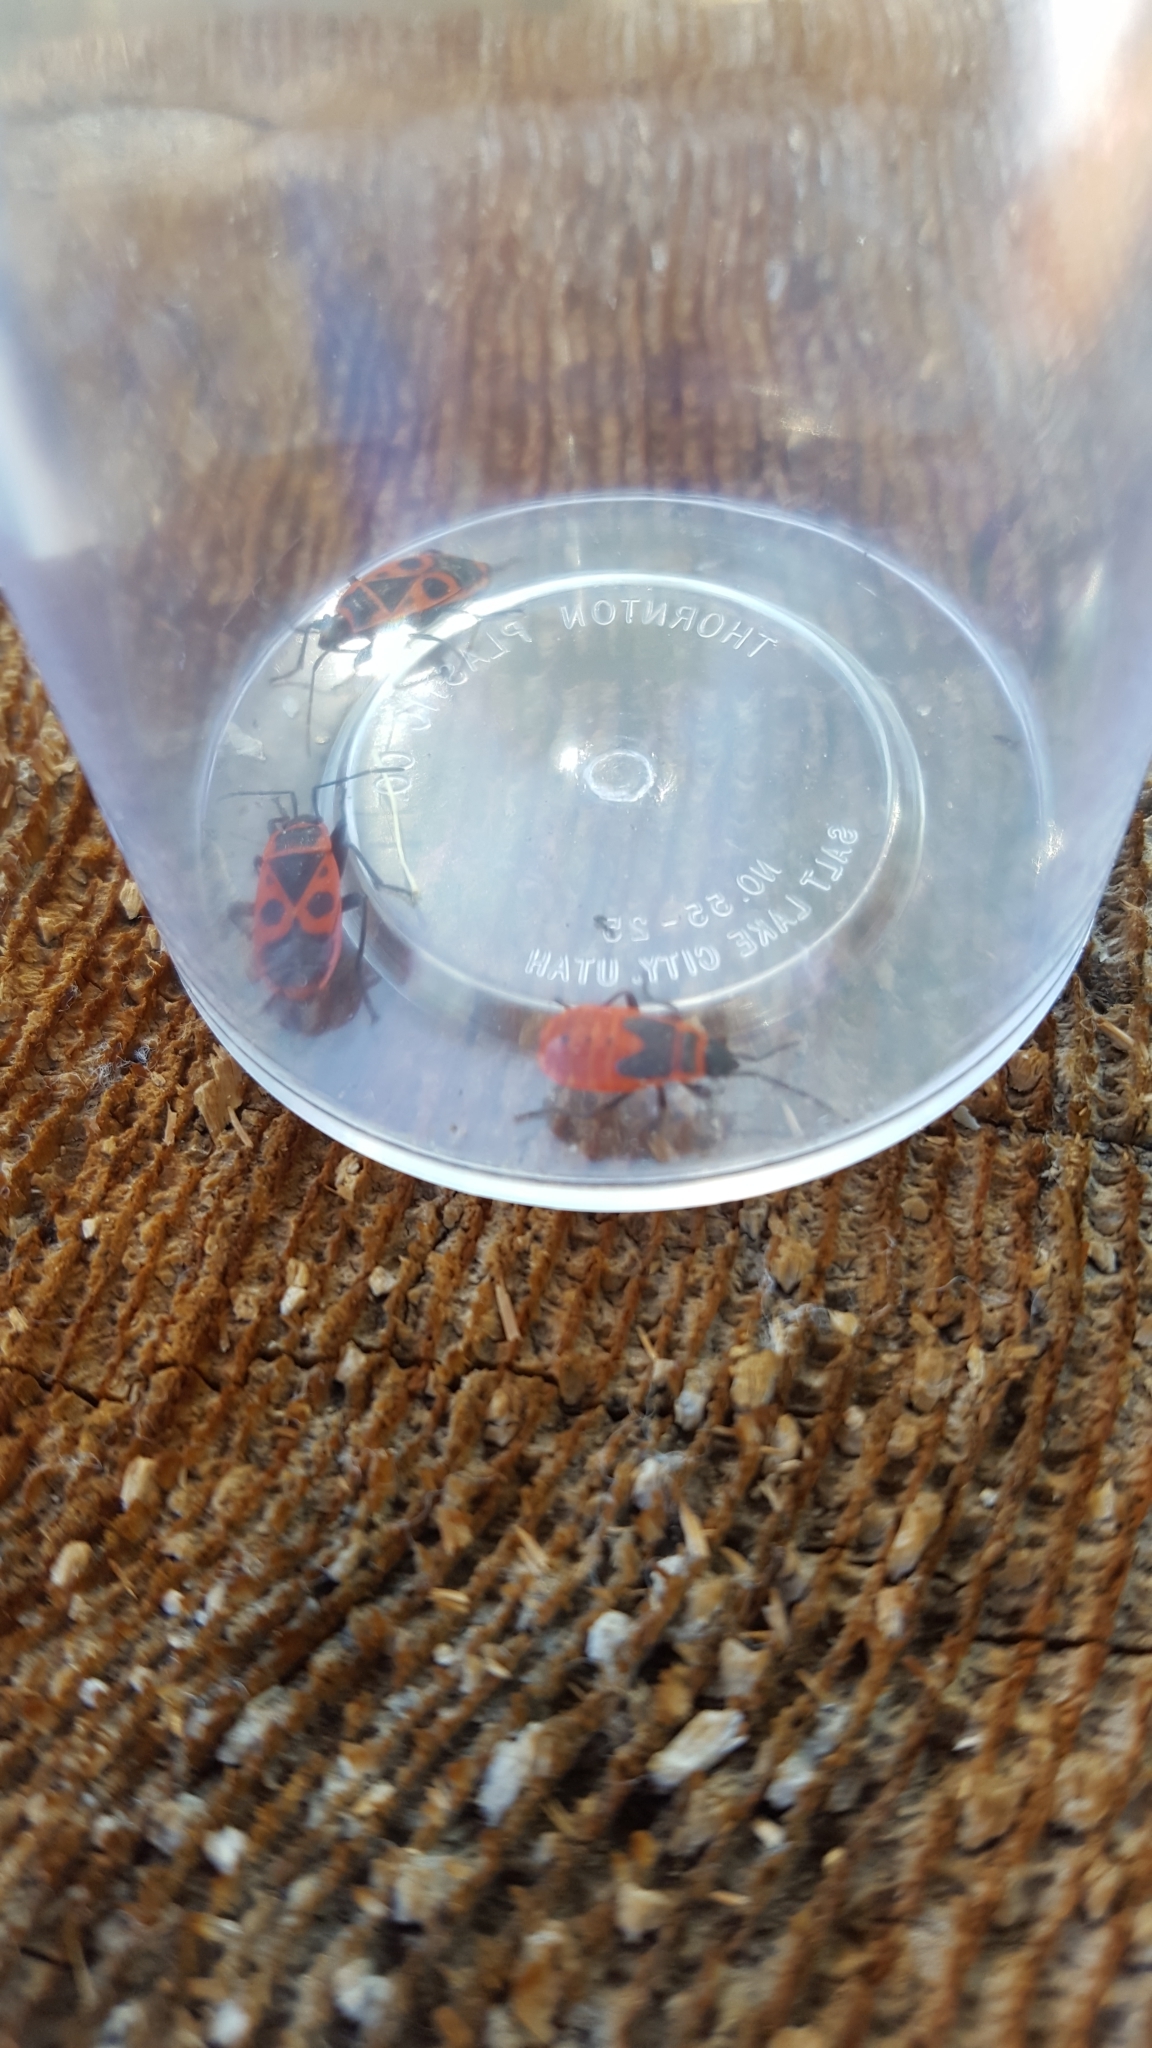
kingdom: Animalia
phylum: Arthropoda
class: Insecta
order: Hemiptera
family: Pyrrhocoridae
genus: Pyrrhocoris
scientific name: Pyrrhocoris apterus
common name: Firebug
